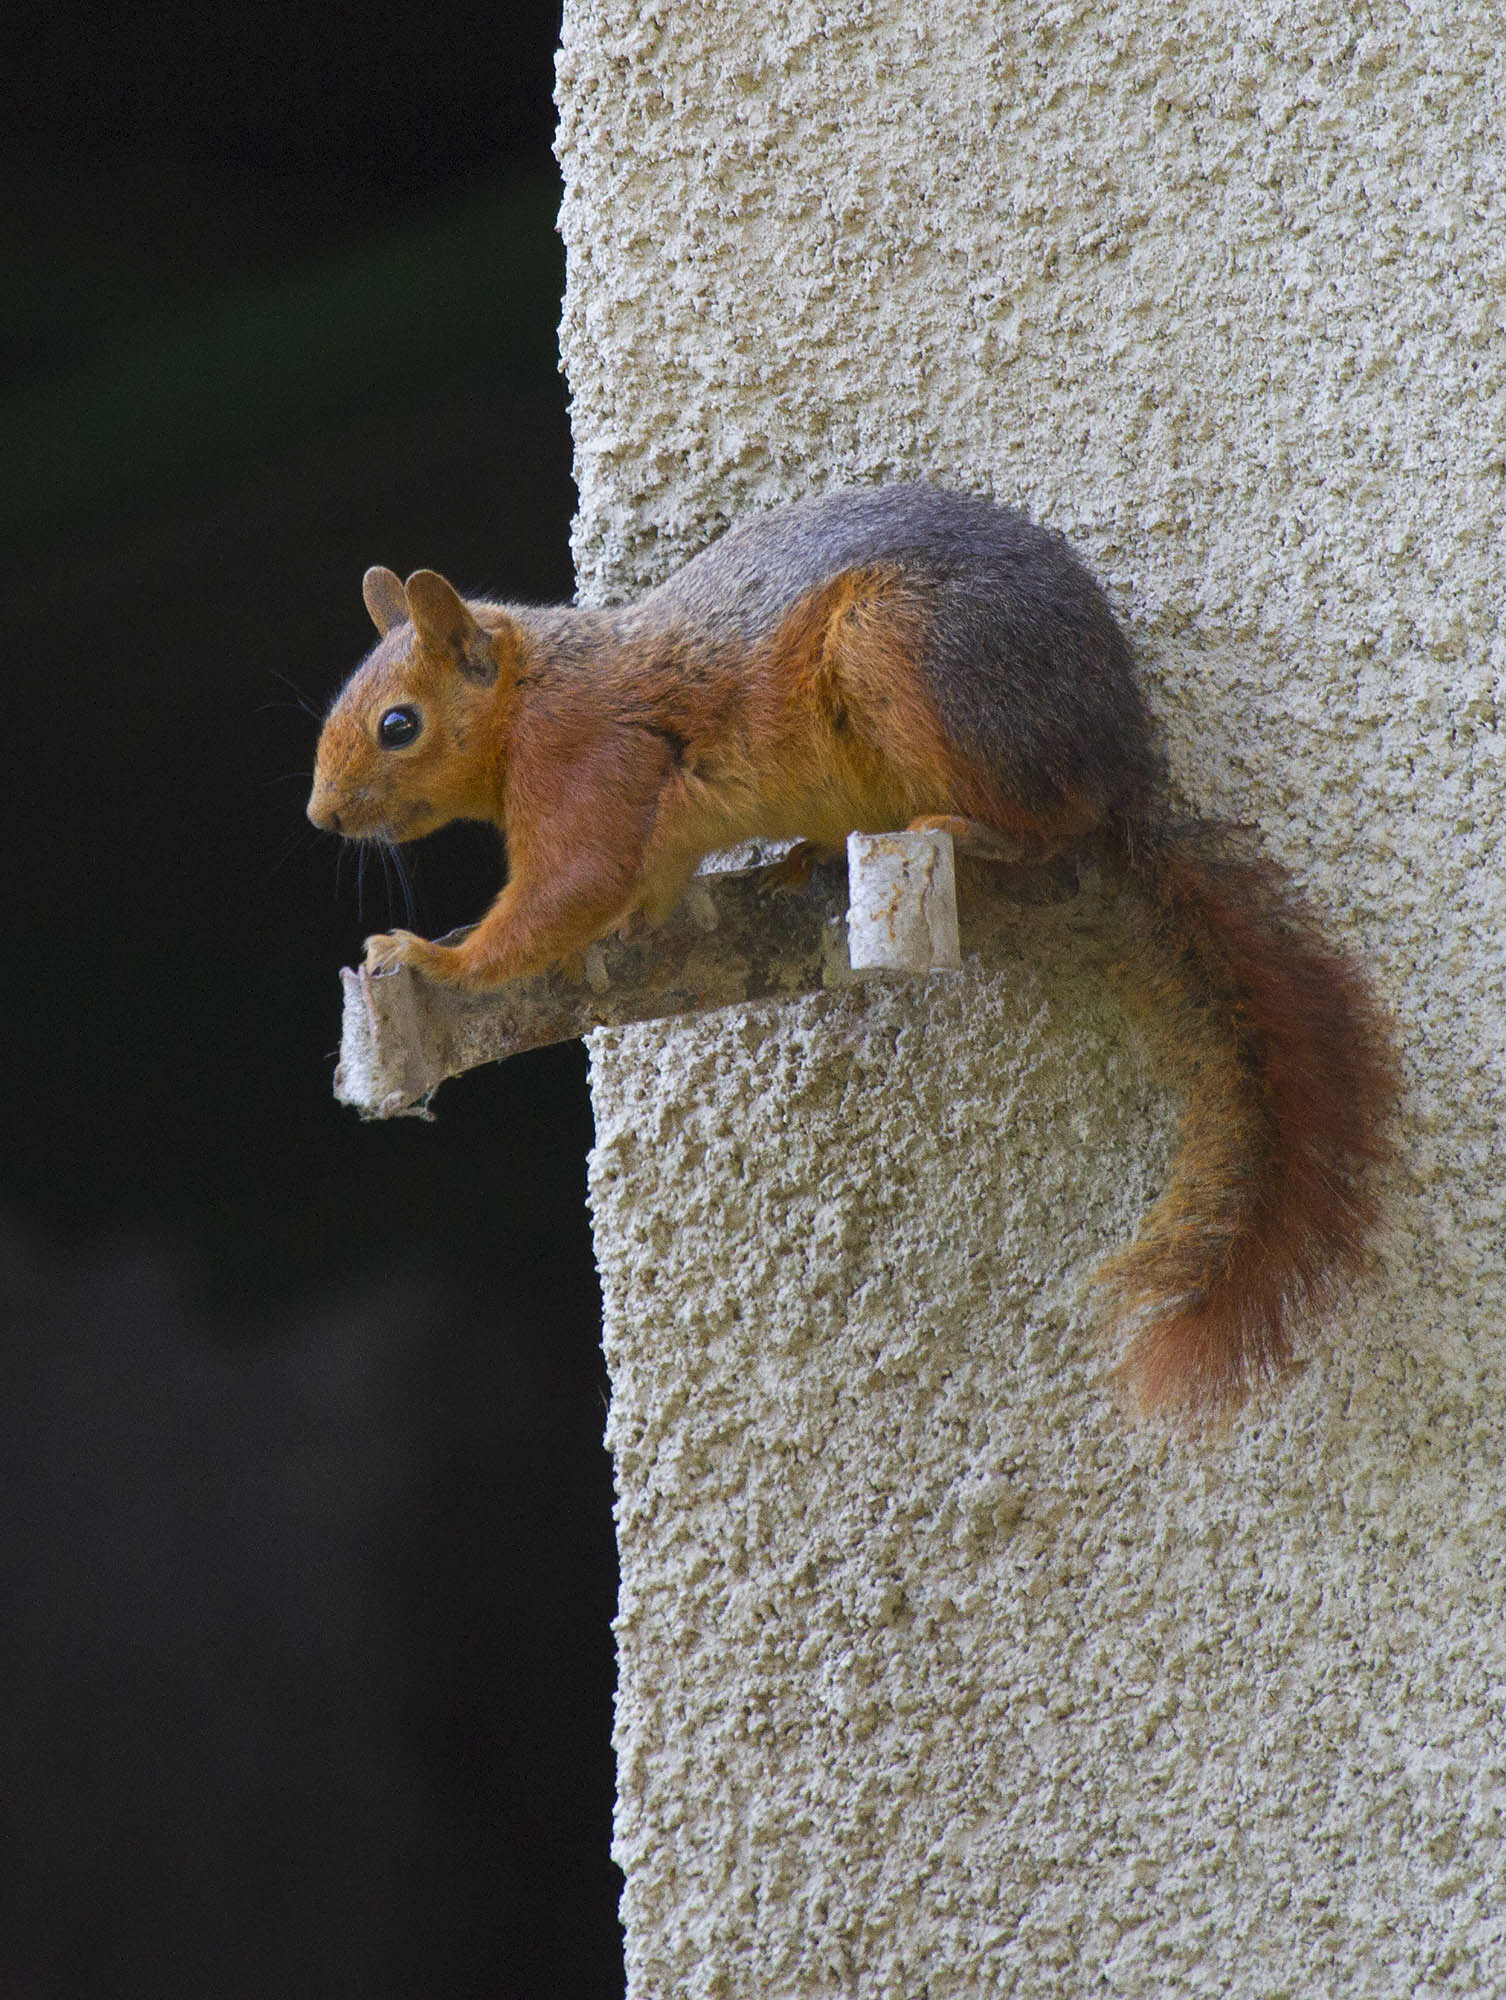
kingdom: Animalia
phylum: Chordata
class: Mammalia
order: Rodentia
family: Sciuridae
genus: Sciurus
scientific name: Sciurus anomalus
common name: Caucasian squirrel
